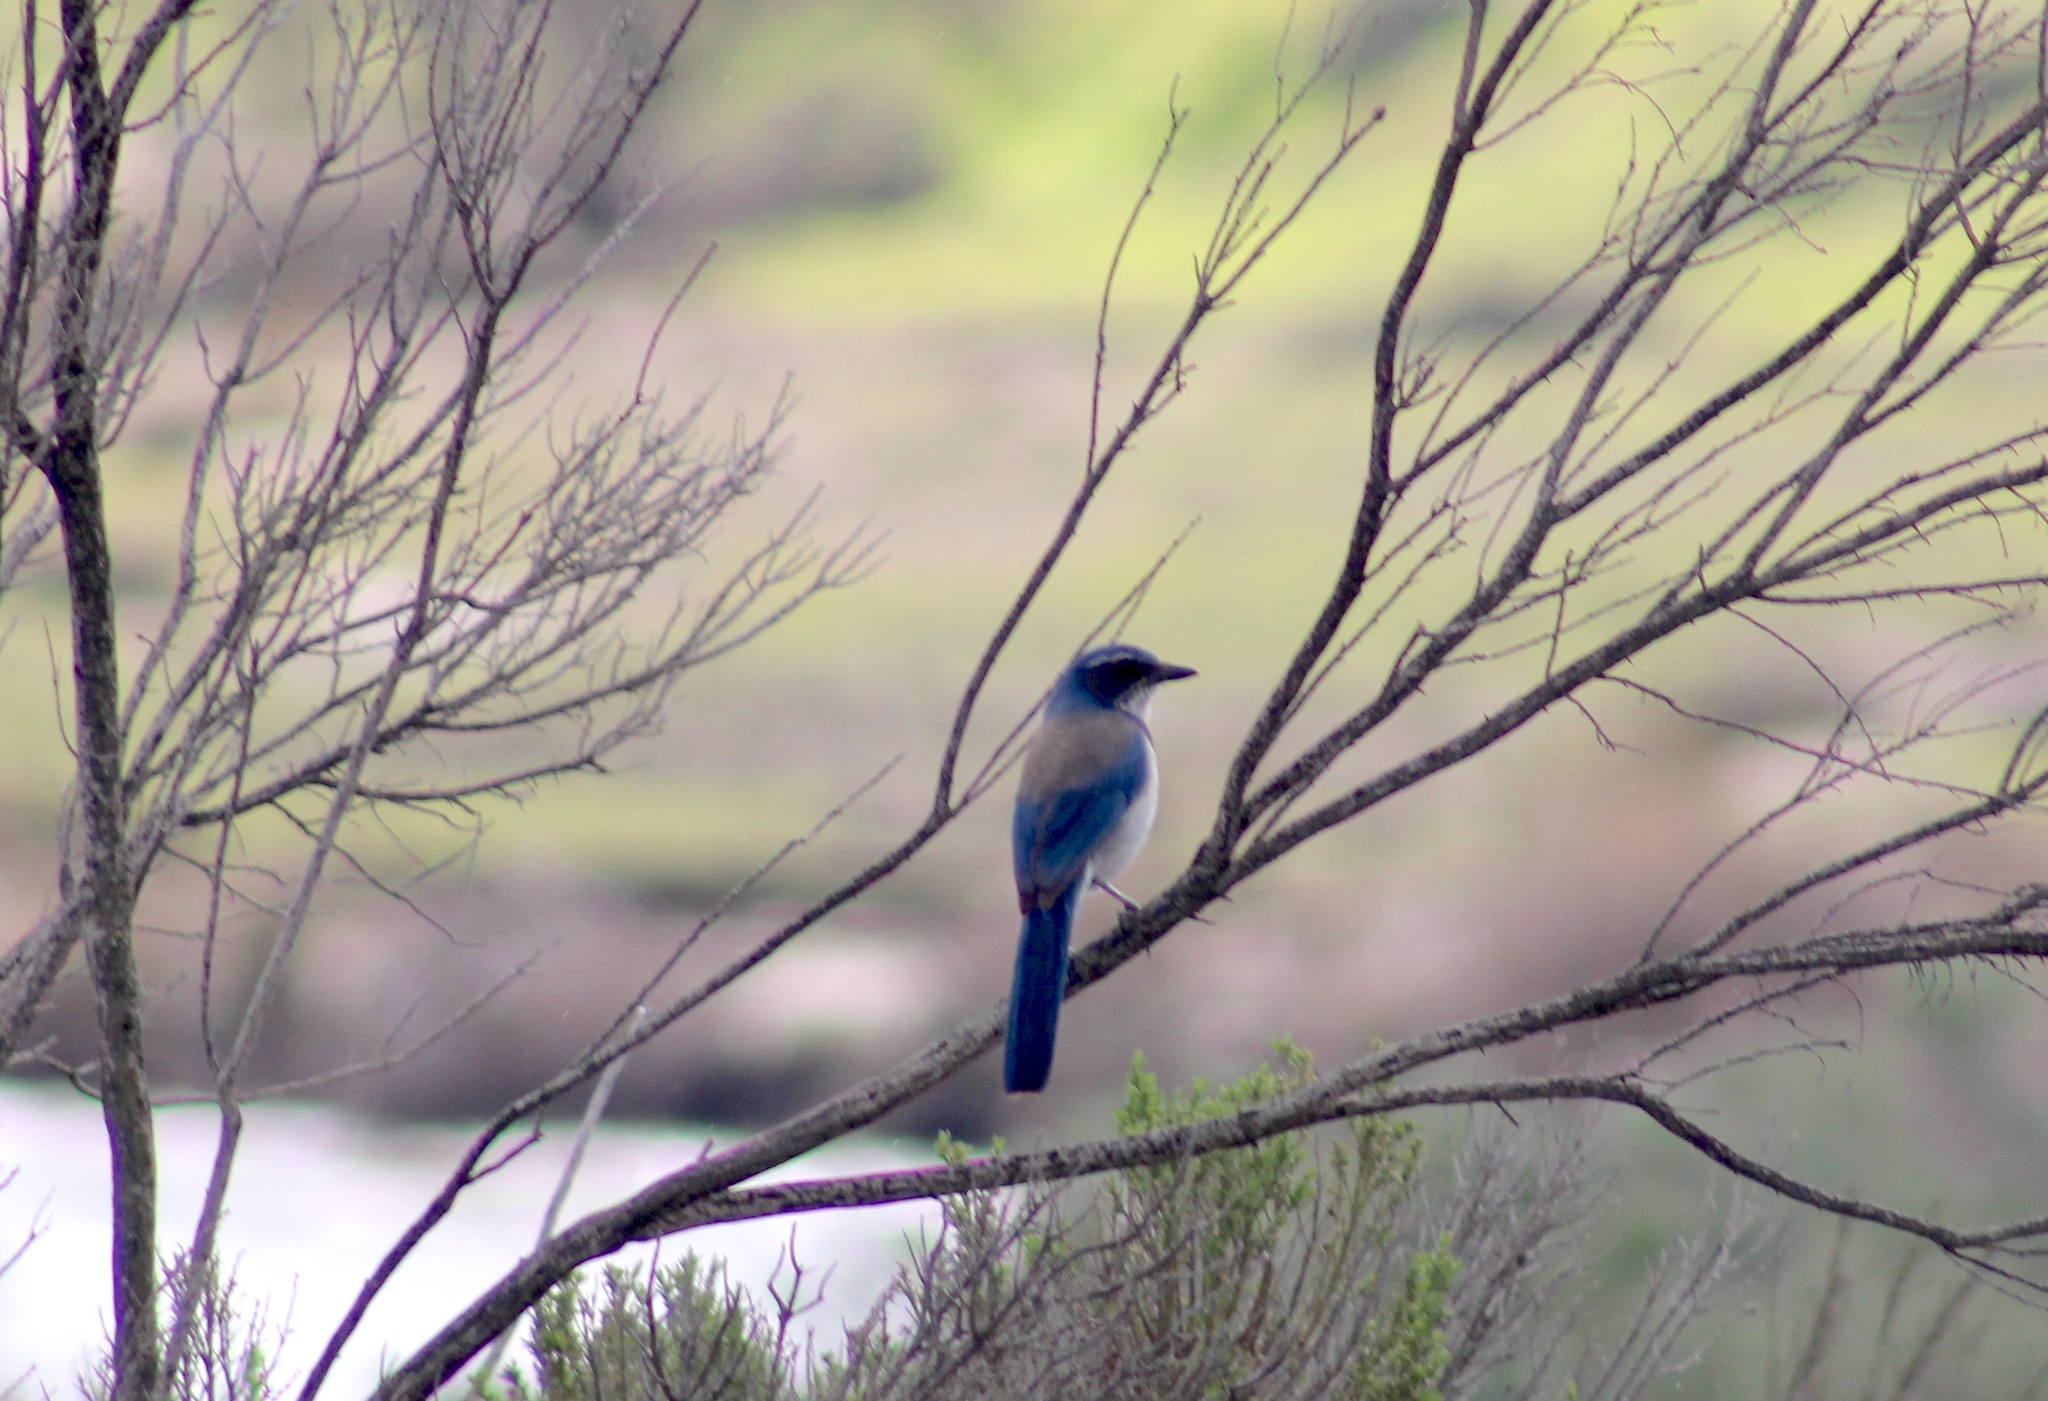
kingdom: Animalia
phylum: Chordata
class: Aves
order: Passeriformes
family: Corvidae
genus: Aphelocoma
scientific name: Aphelocoma californica
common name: California scrub-jay
